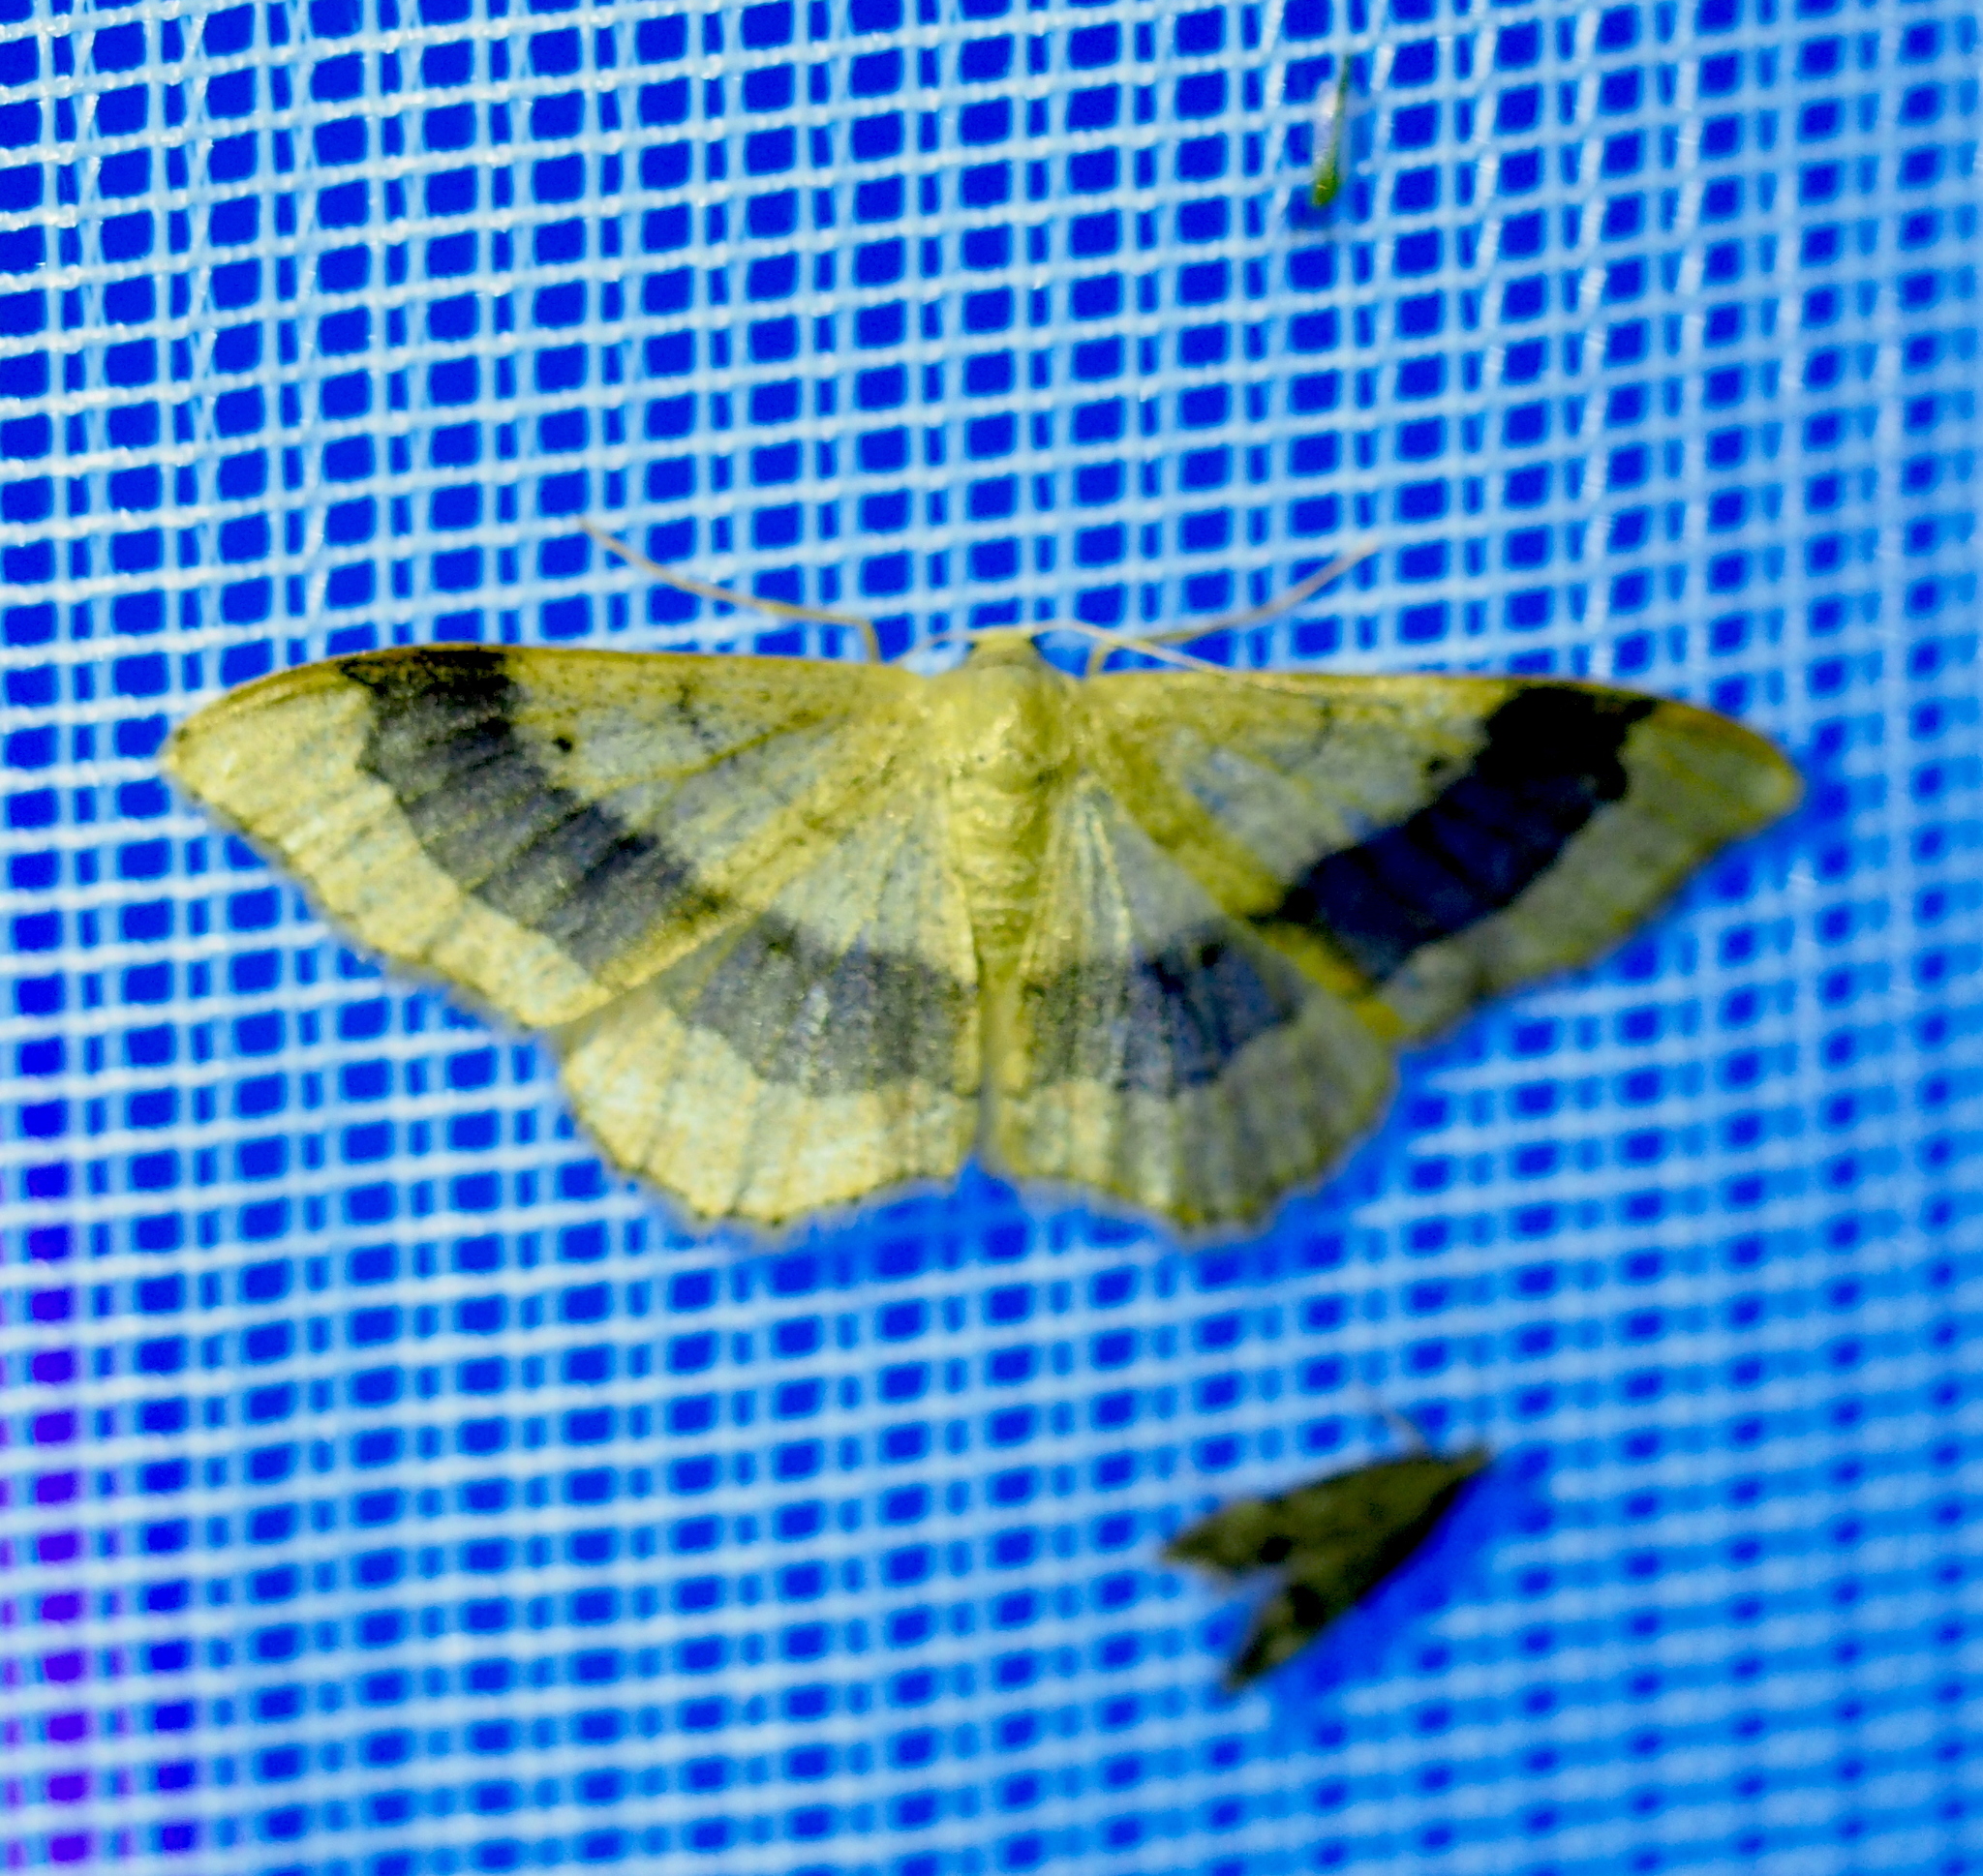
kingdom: Animalia
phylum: Arthropoda
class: Insecta
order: Lepidoptera
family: Geometridae
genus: Idaea
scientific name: Idaea aversata
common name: Riband wave
